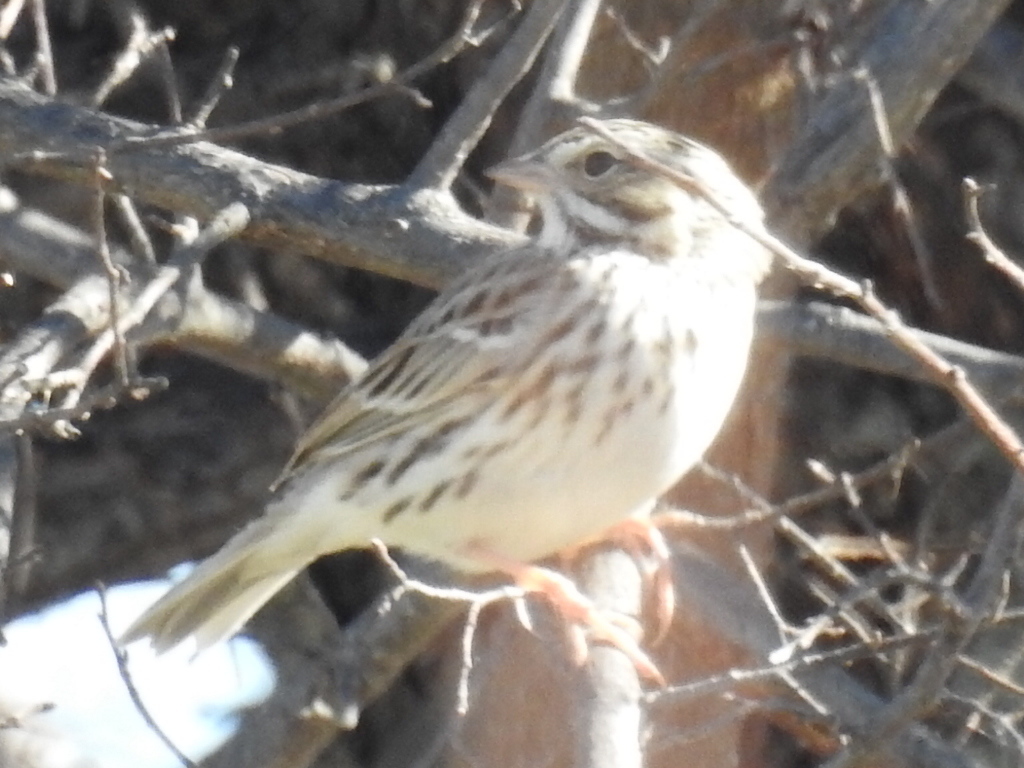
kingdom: Animalia
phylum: Chordata
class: Aves
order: Passeriformes
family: Passerellidae
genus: Passerculus
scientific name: Passerculus sandwichensis
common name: Savannah sparrow
